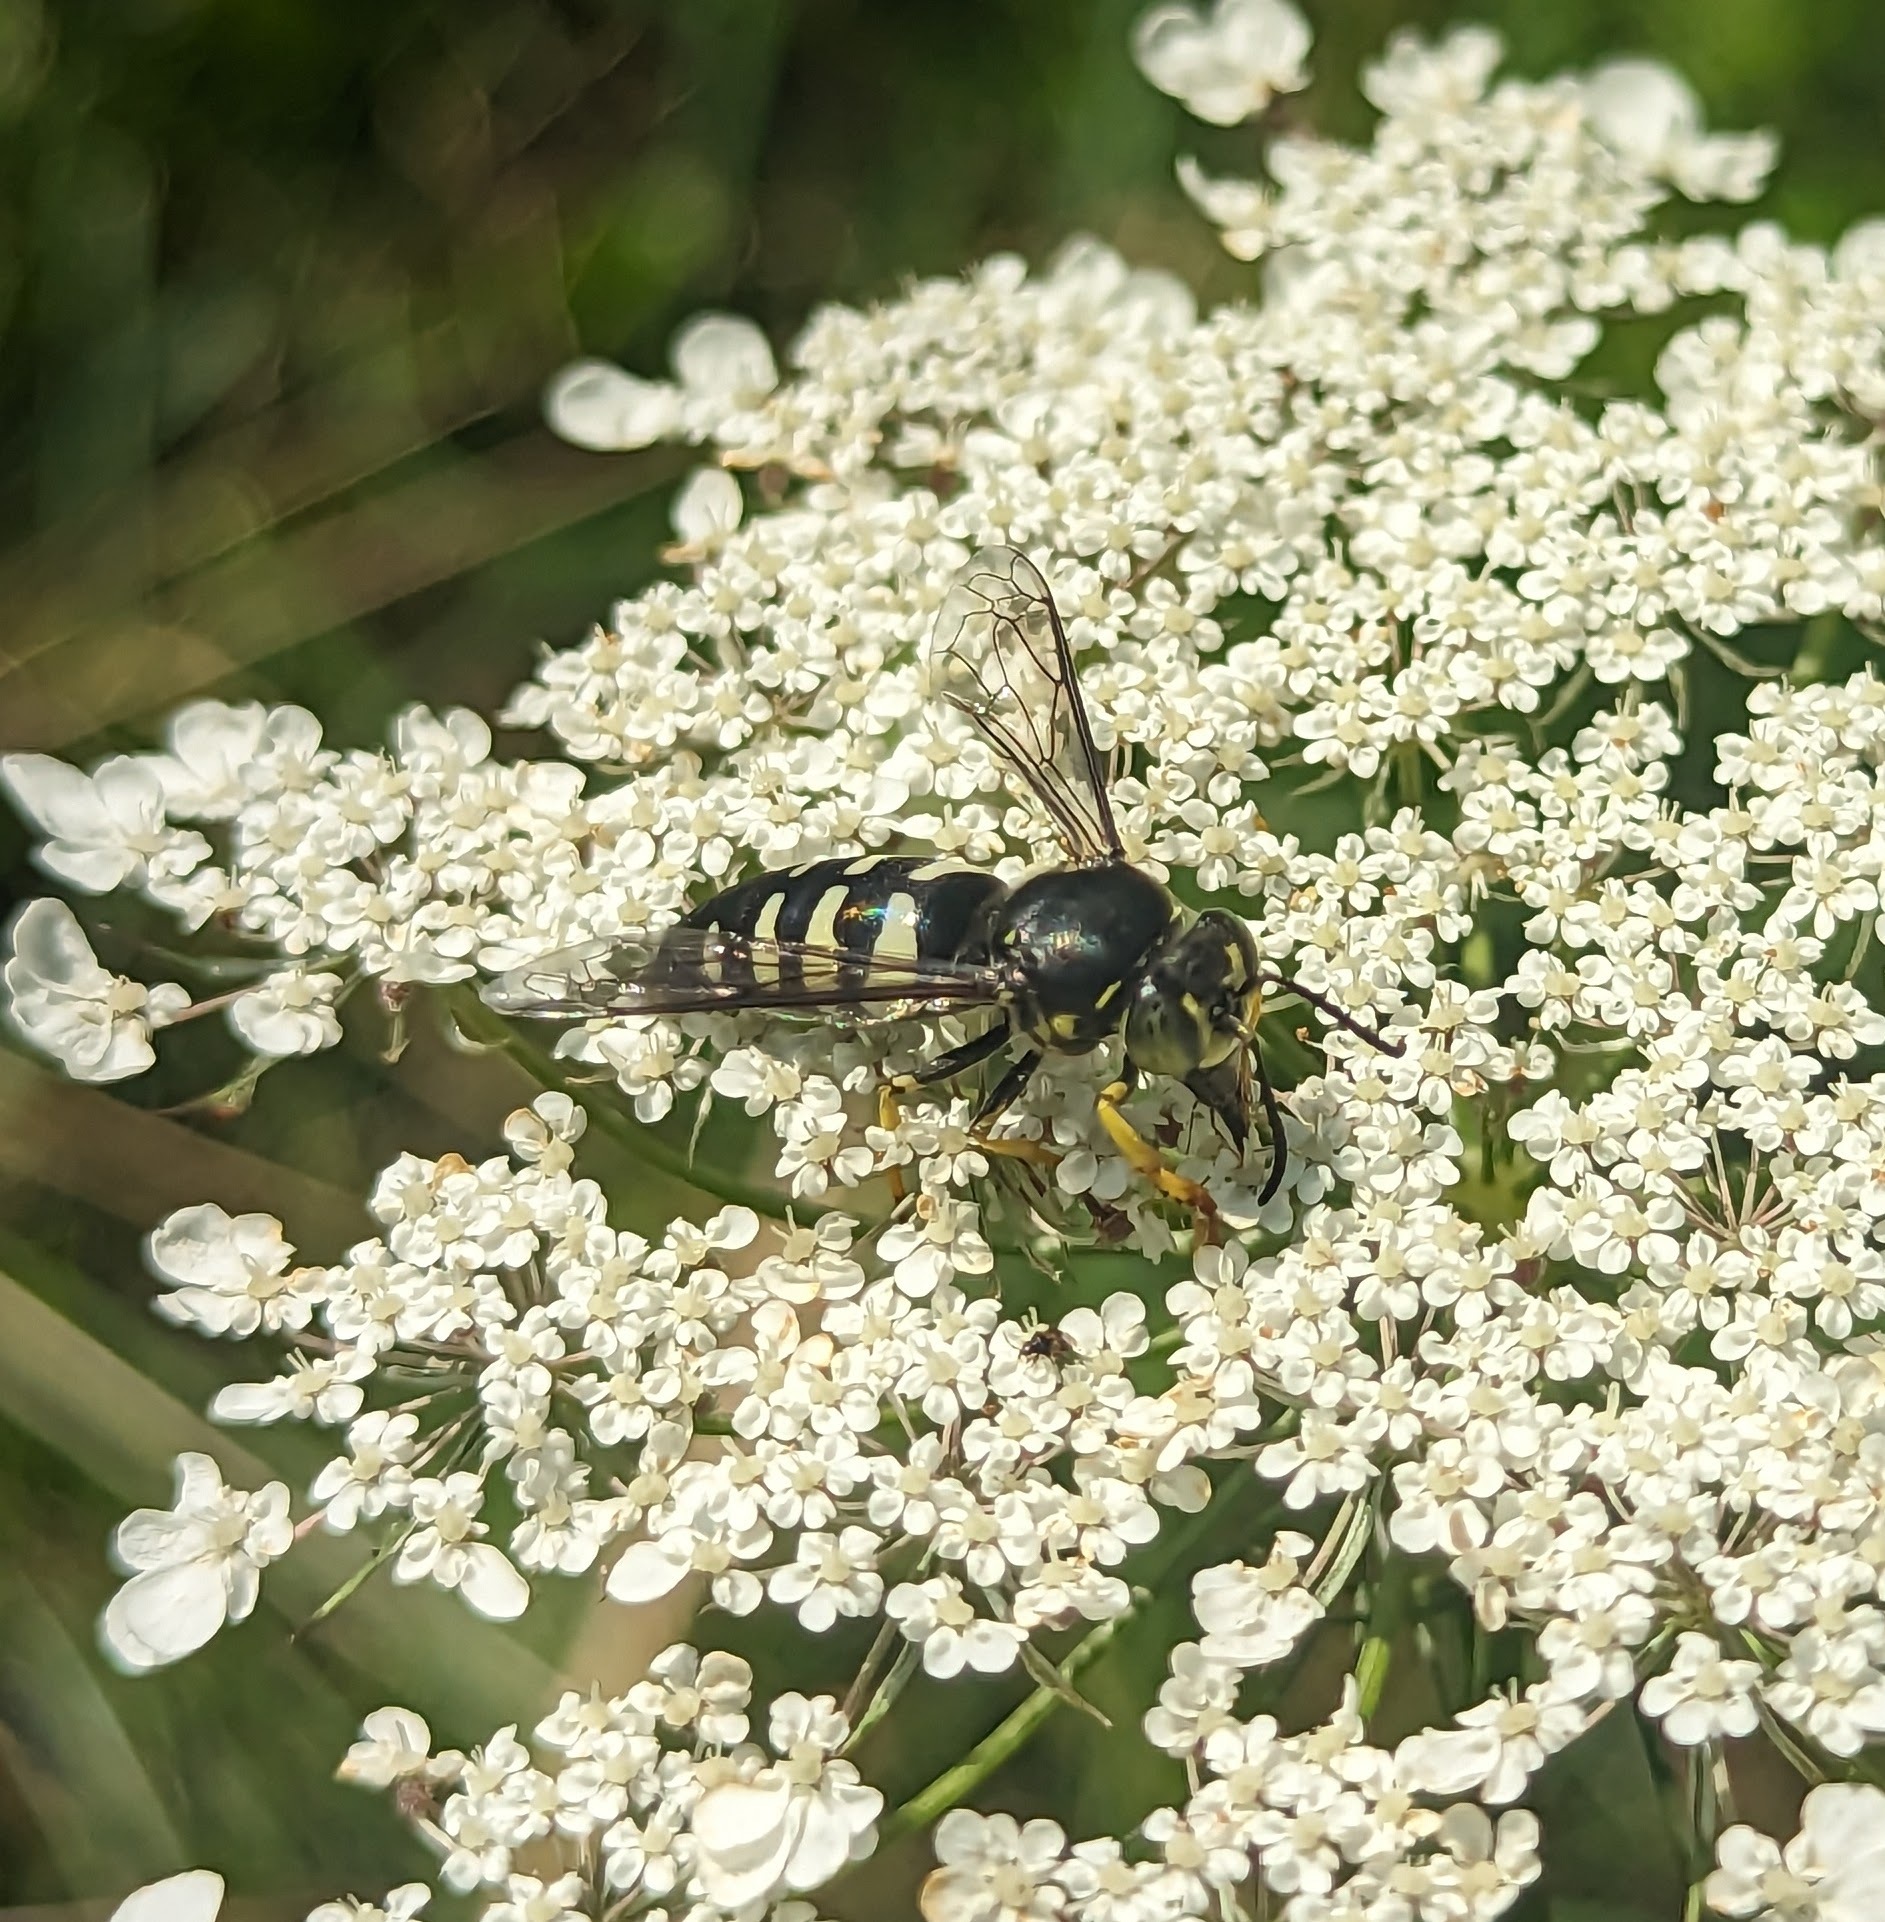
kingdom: Animalia
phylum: Arthropoda
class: Insecta
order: Hymenoptera
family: Crabronidae
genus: Bicyrtes
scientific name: Bicyrtes quadrifasciatus
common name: Four-banded stink bug hunter wasp
